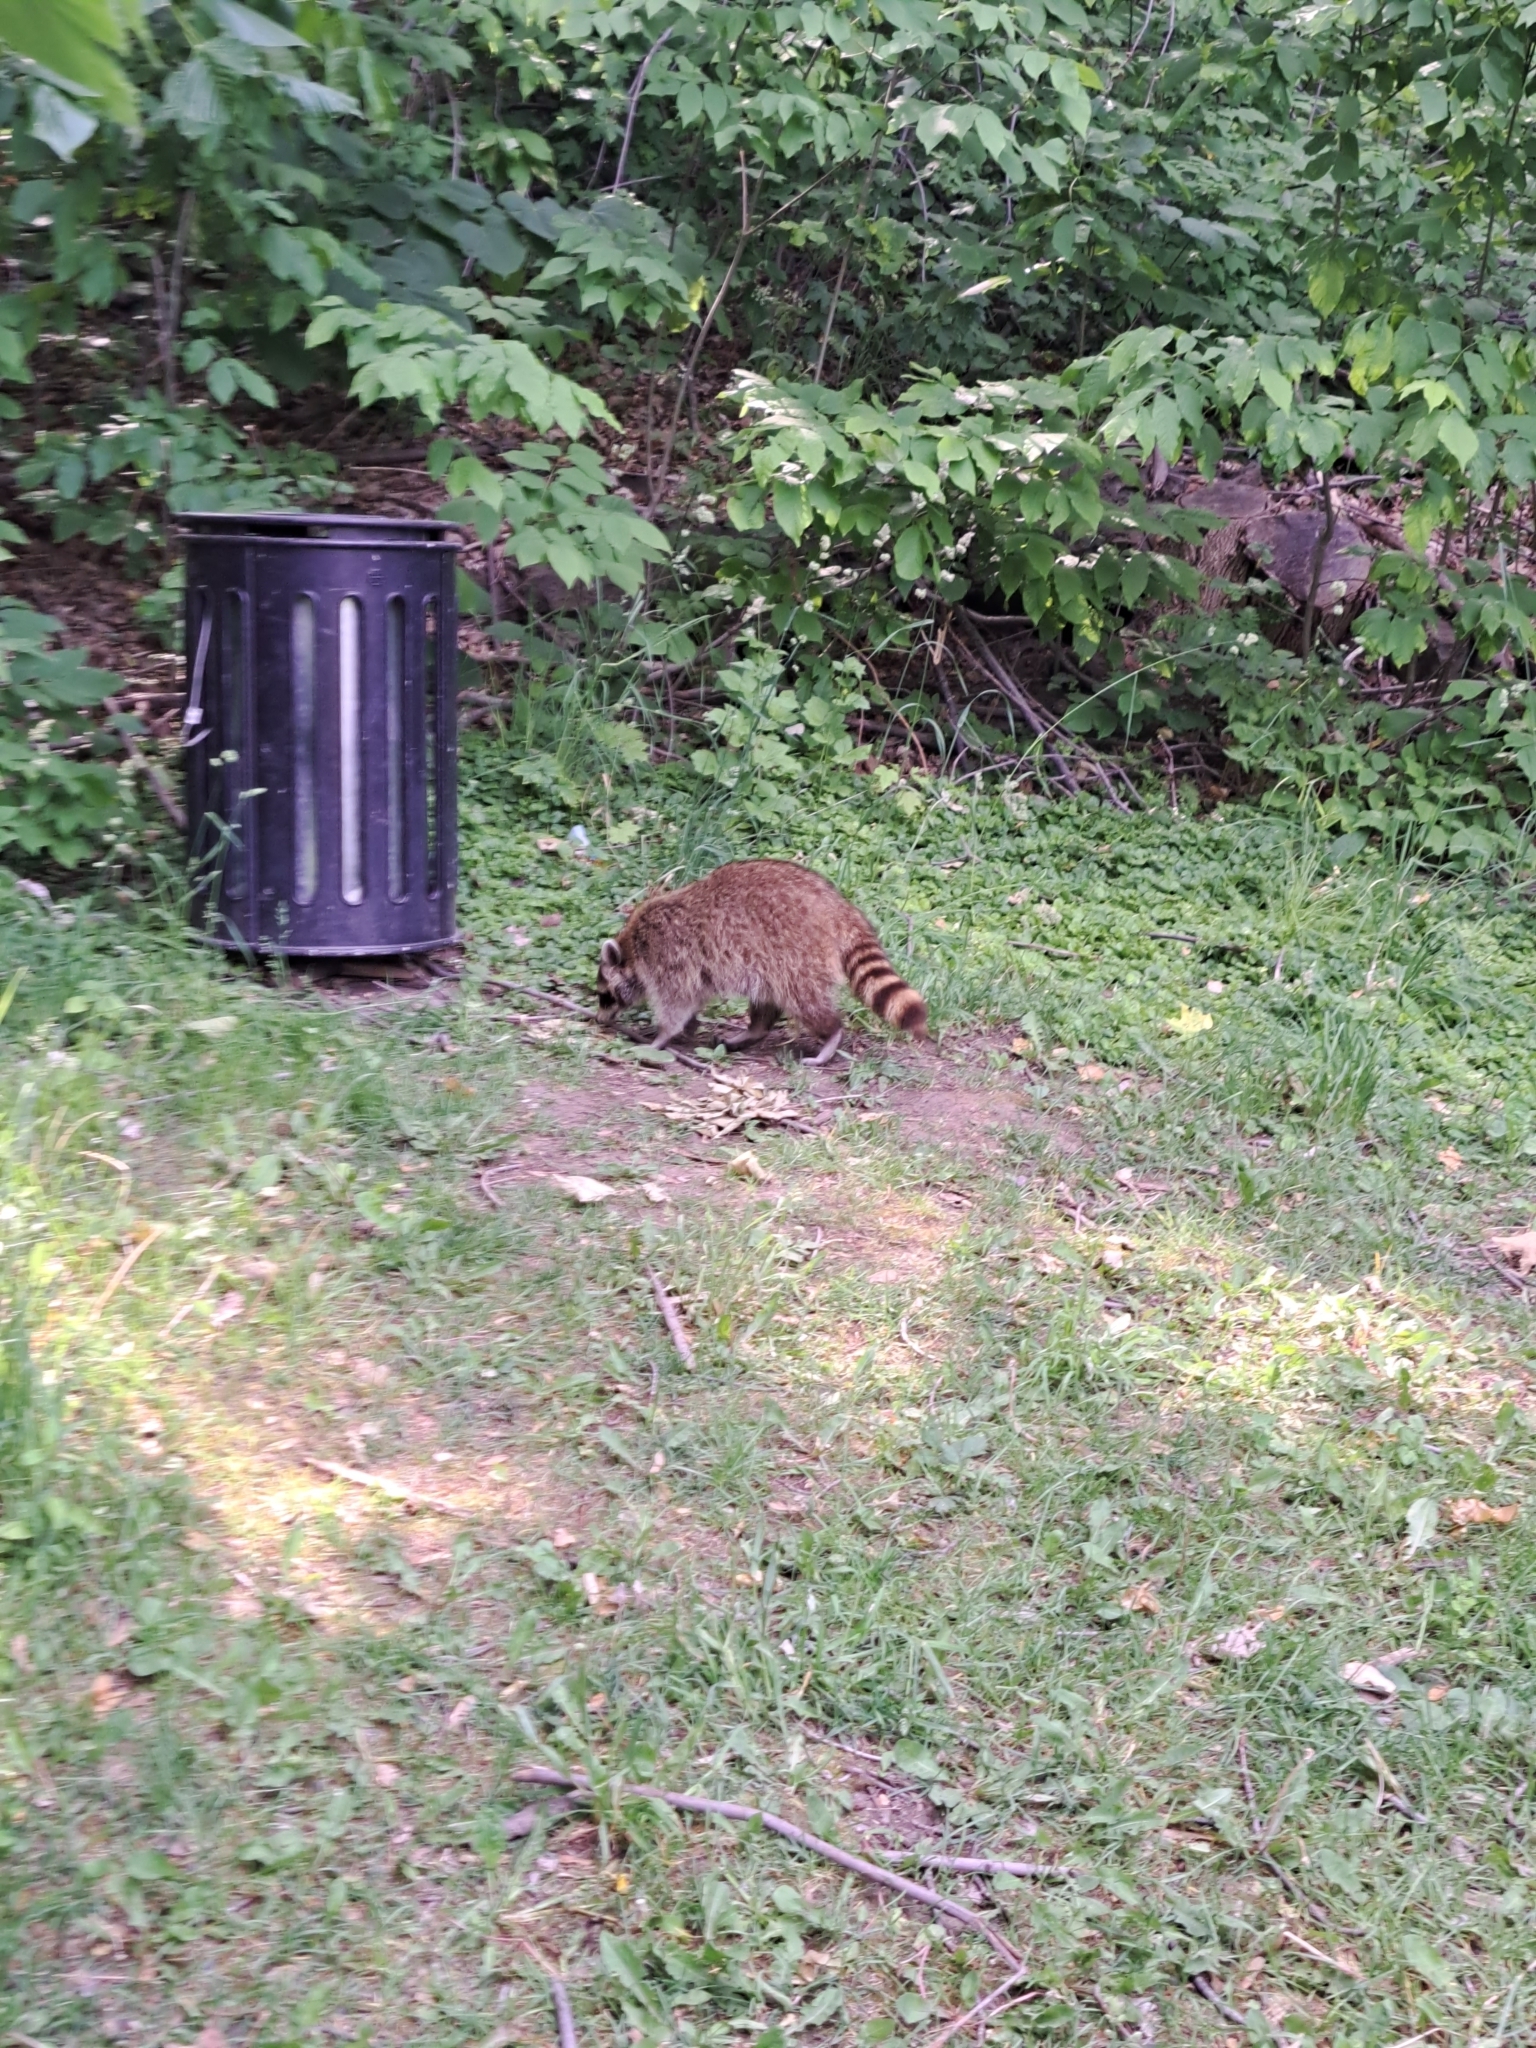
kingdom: Animalia
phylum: Chordata
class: Mammalia
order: Carnivora
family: Procyonidae
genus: Procyon
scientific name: Procyon lotor
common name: Raccoon
